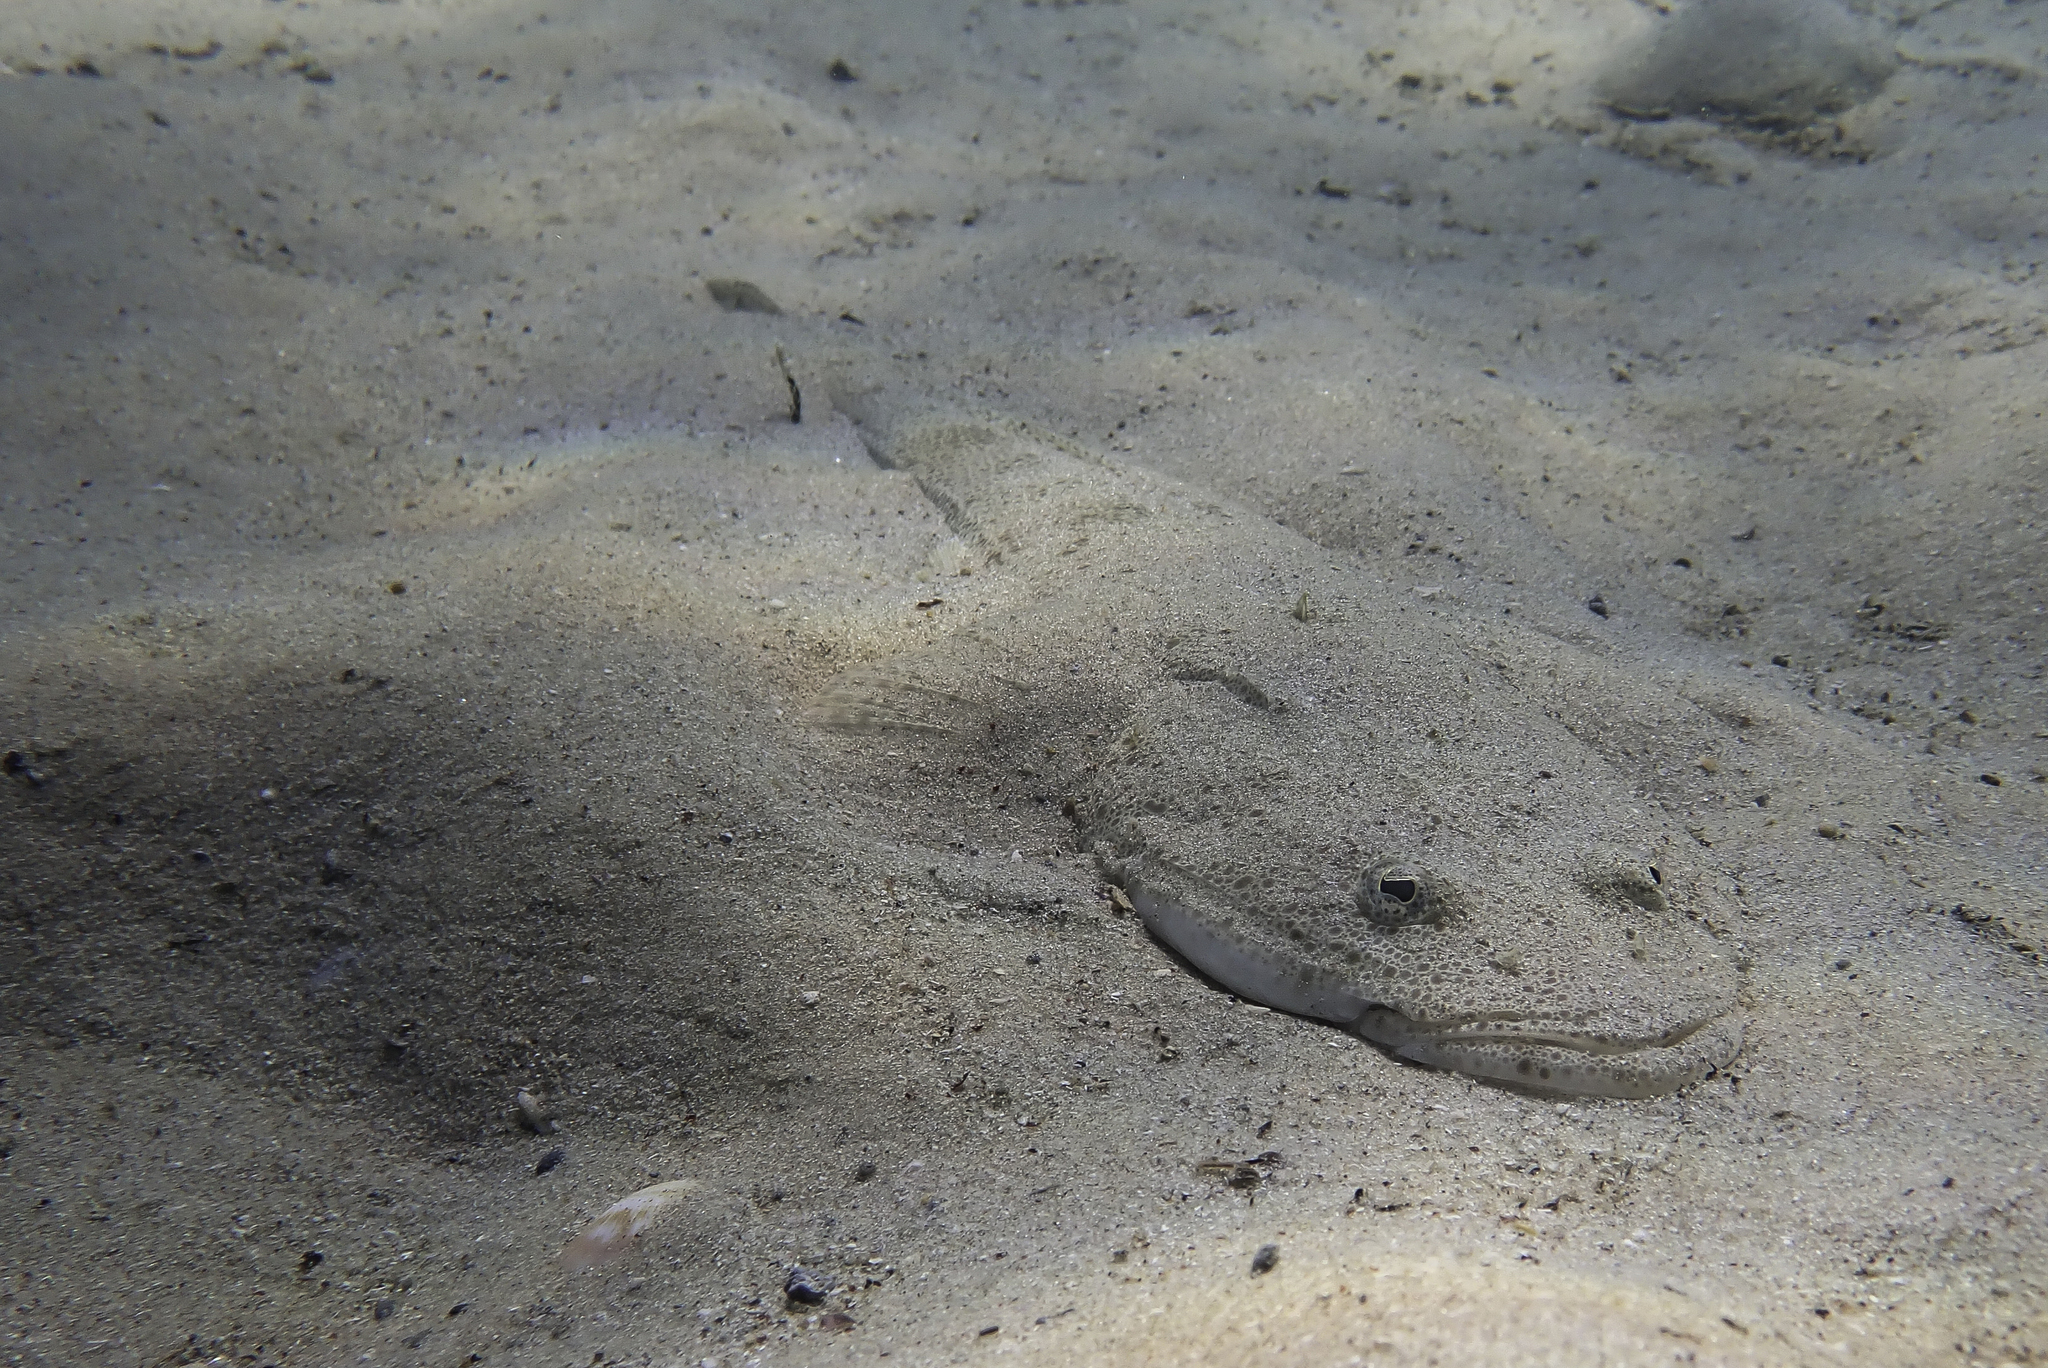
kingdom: Animalia
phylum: Chordata
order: Scorpaeniformes
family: Platycephalidae
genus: Platycephalus
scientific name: Platycephalus indicus
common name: Bartail flathead
